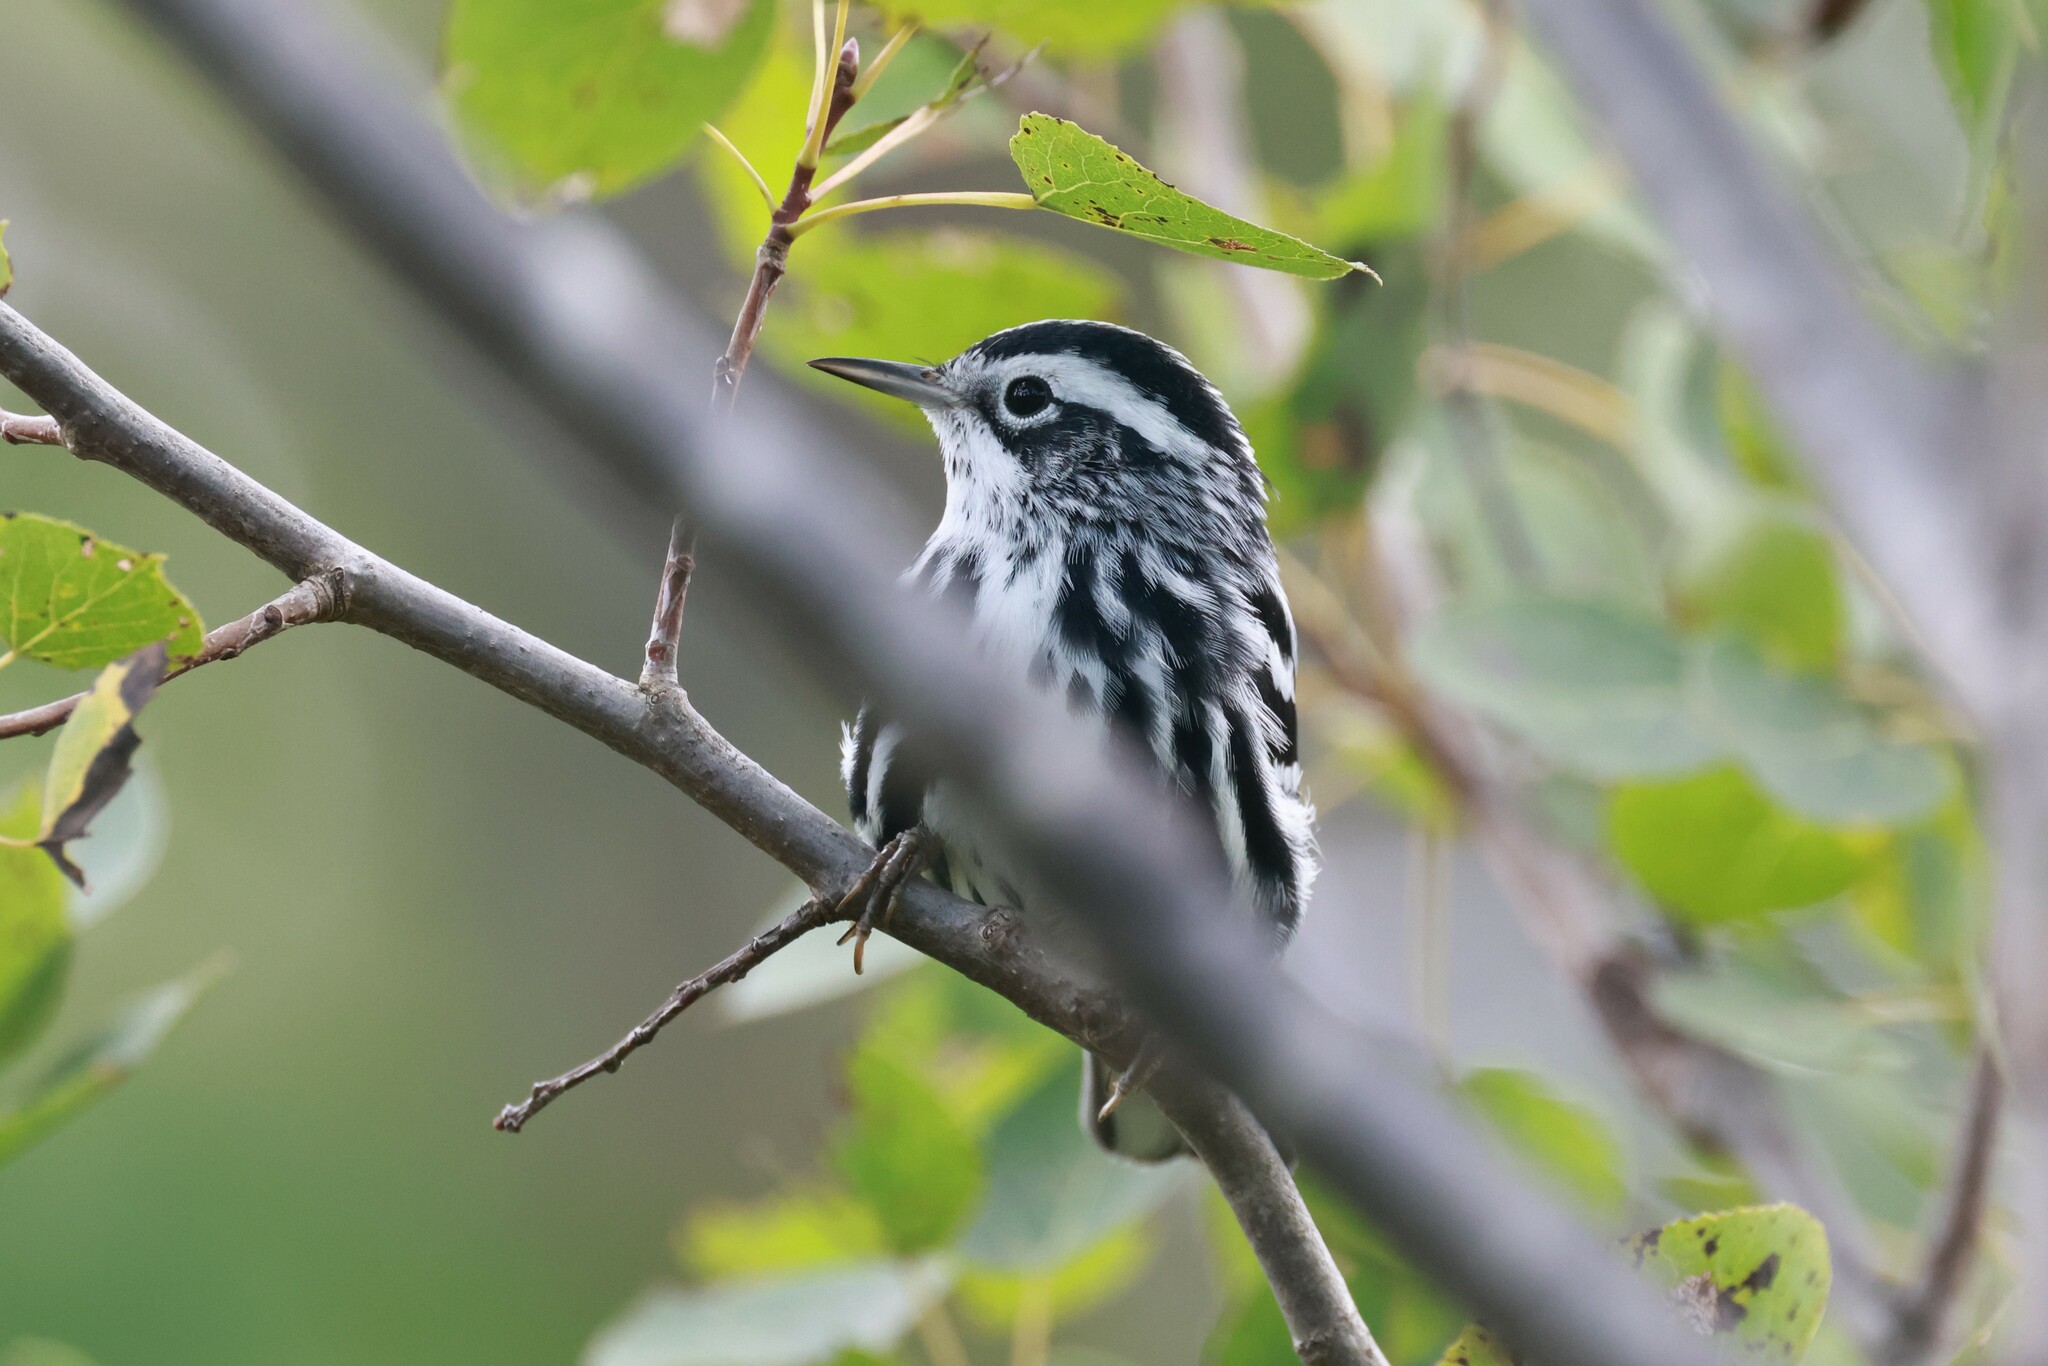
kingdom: Animalia
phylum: Chordata
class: Aves
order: Passeriformes
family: Parulidae
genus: Mniotilta
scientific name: Mniotilta varia
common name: Black-and-white warbler
